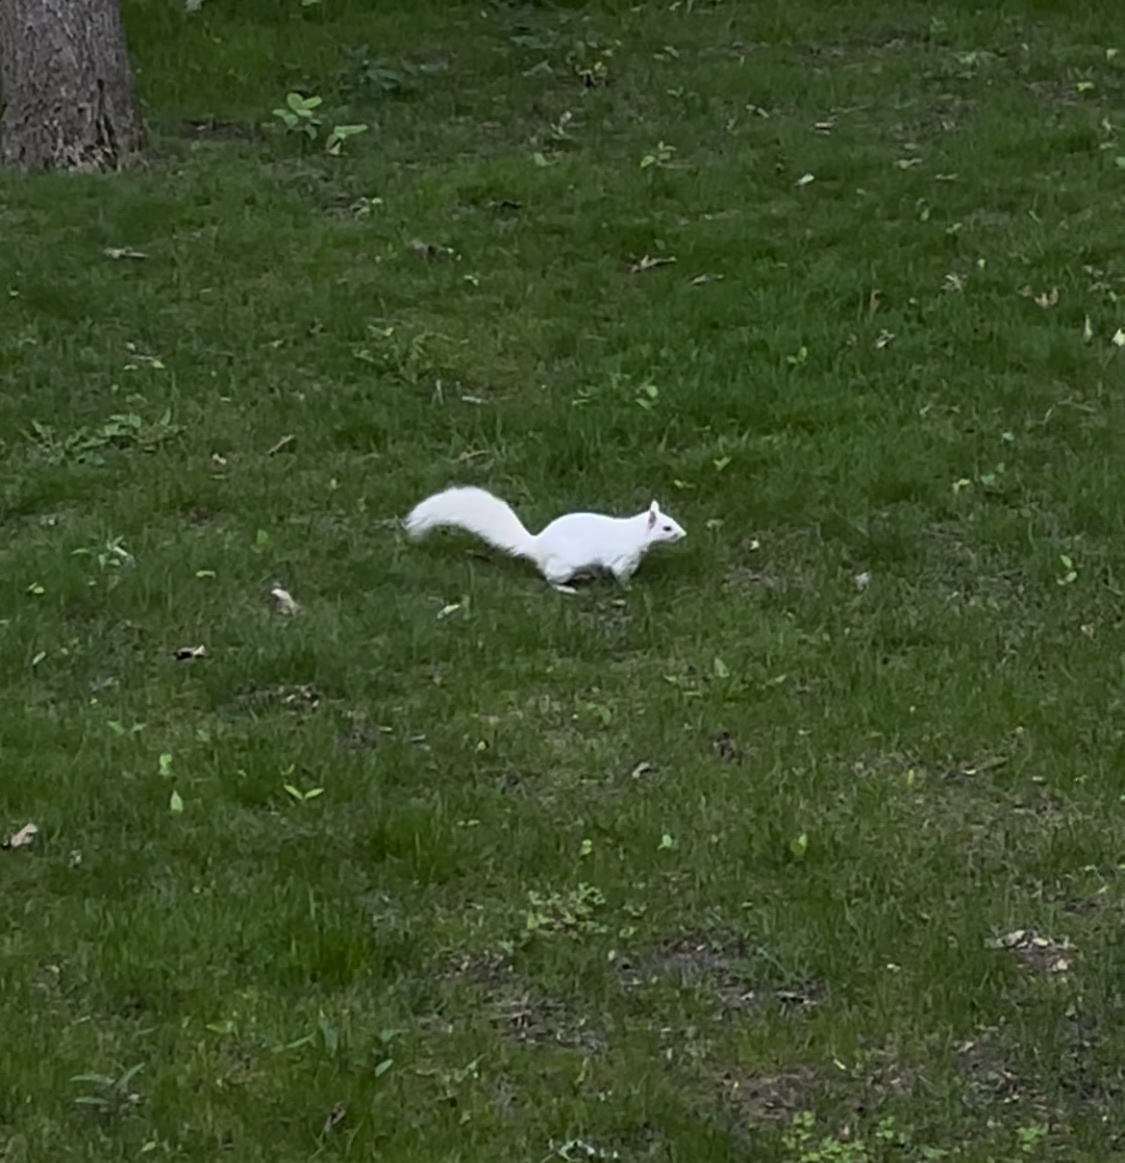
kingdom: Animalia
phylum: Chordata
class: Mammalia
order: Rodentia
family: Sciuridae
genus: Sciurus
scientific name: Sciurus carolinensis
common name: Eastern gray squirrel
